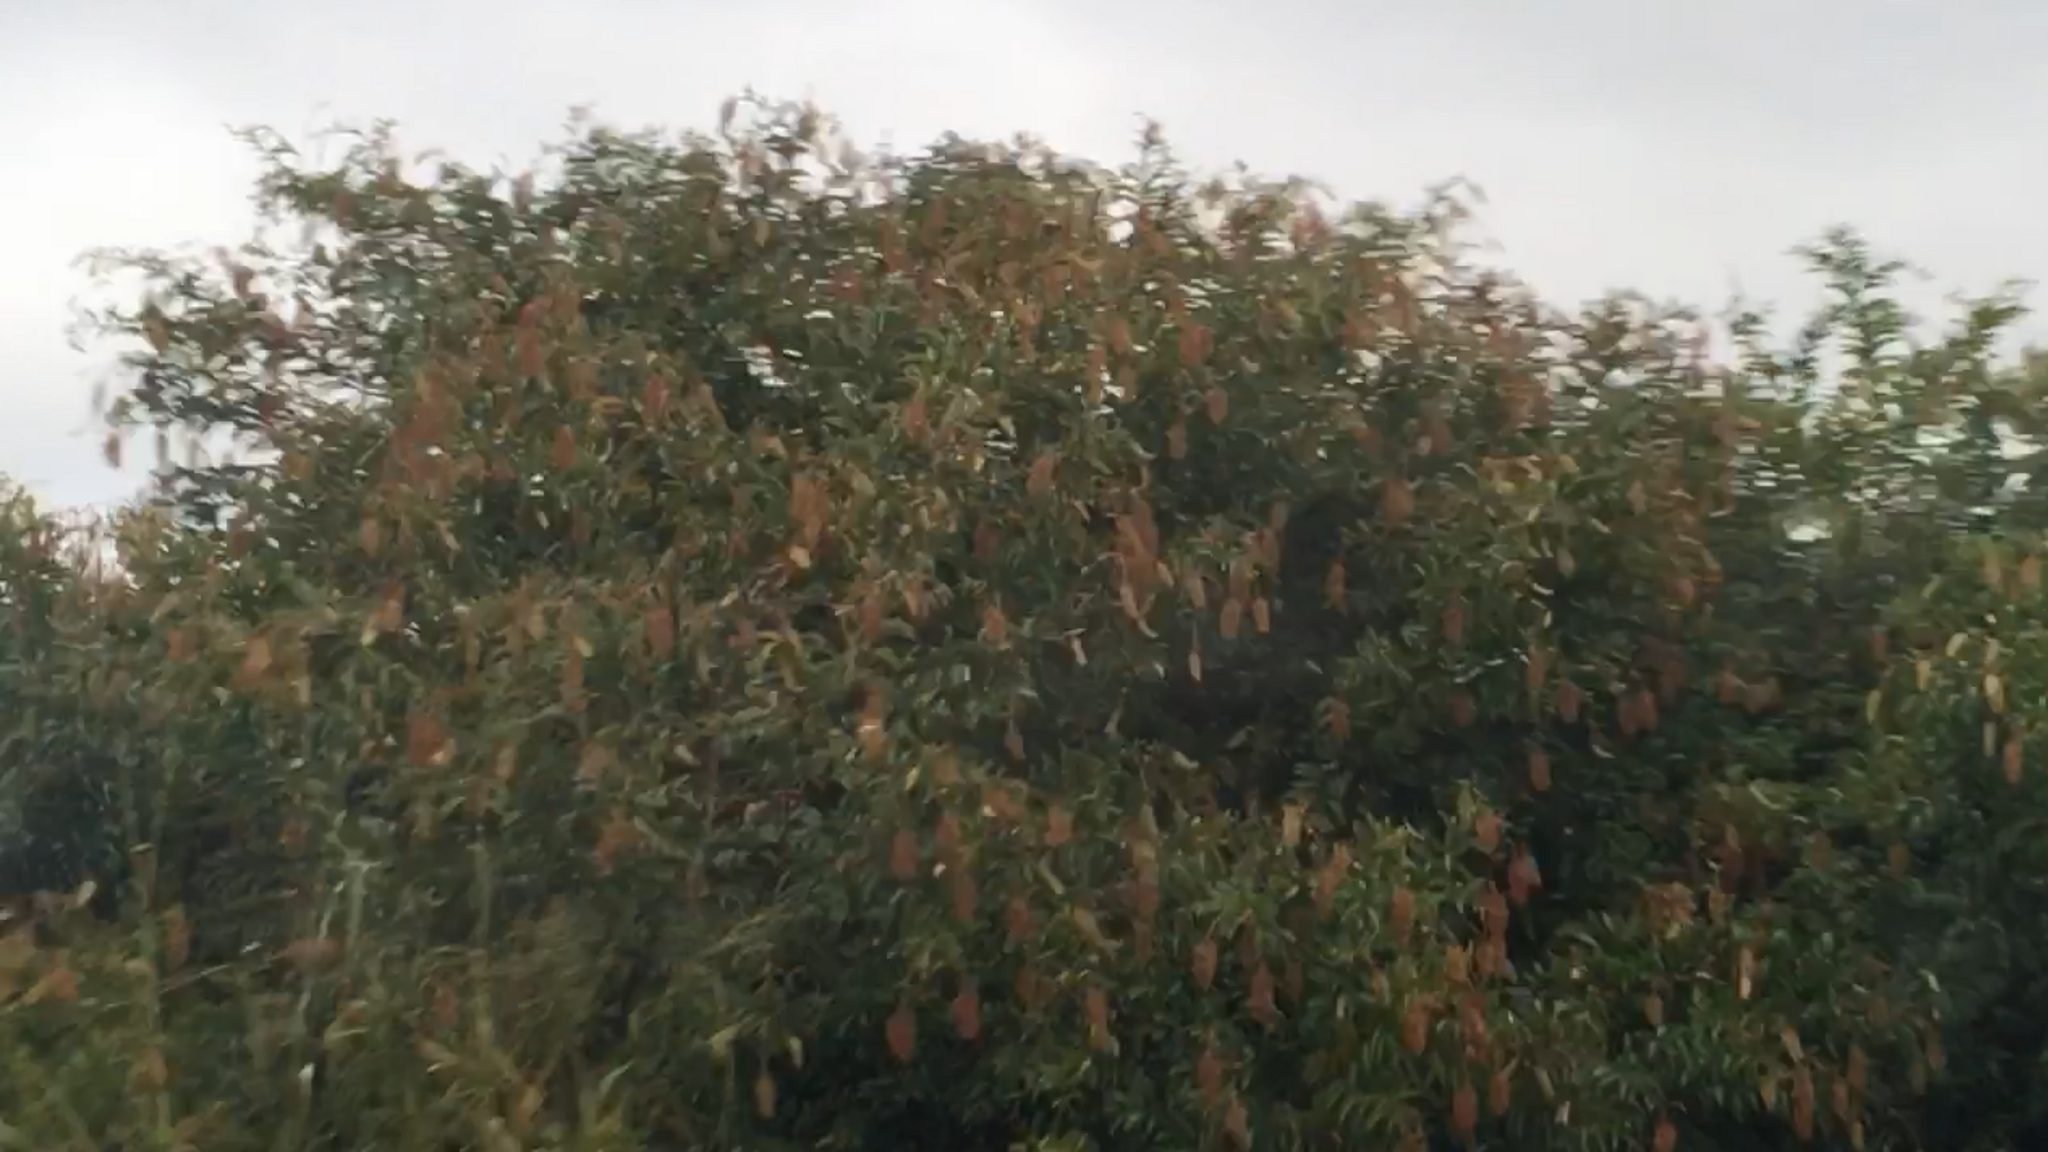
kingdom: Plantae
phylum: Tracheophyta
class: Magnoliopsida
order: Malpighiales
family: Euphorbiaceae
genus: Mabea
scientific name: Mabea fistulifera
